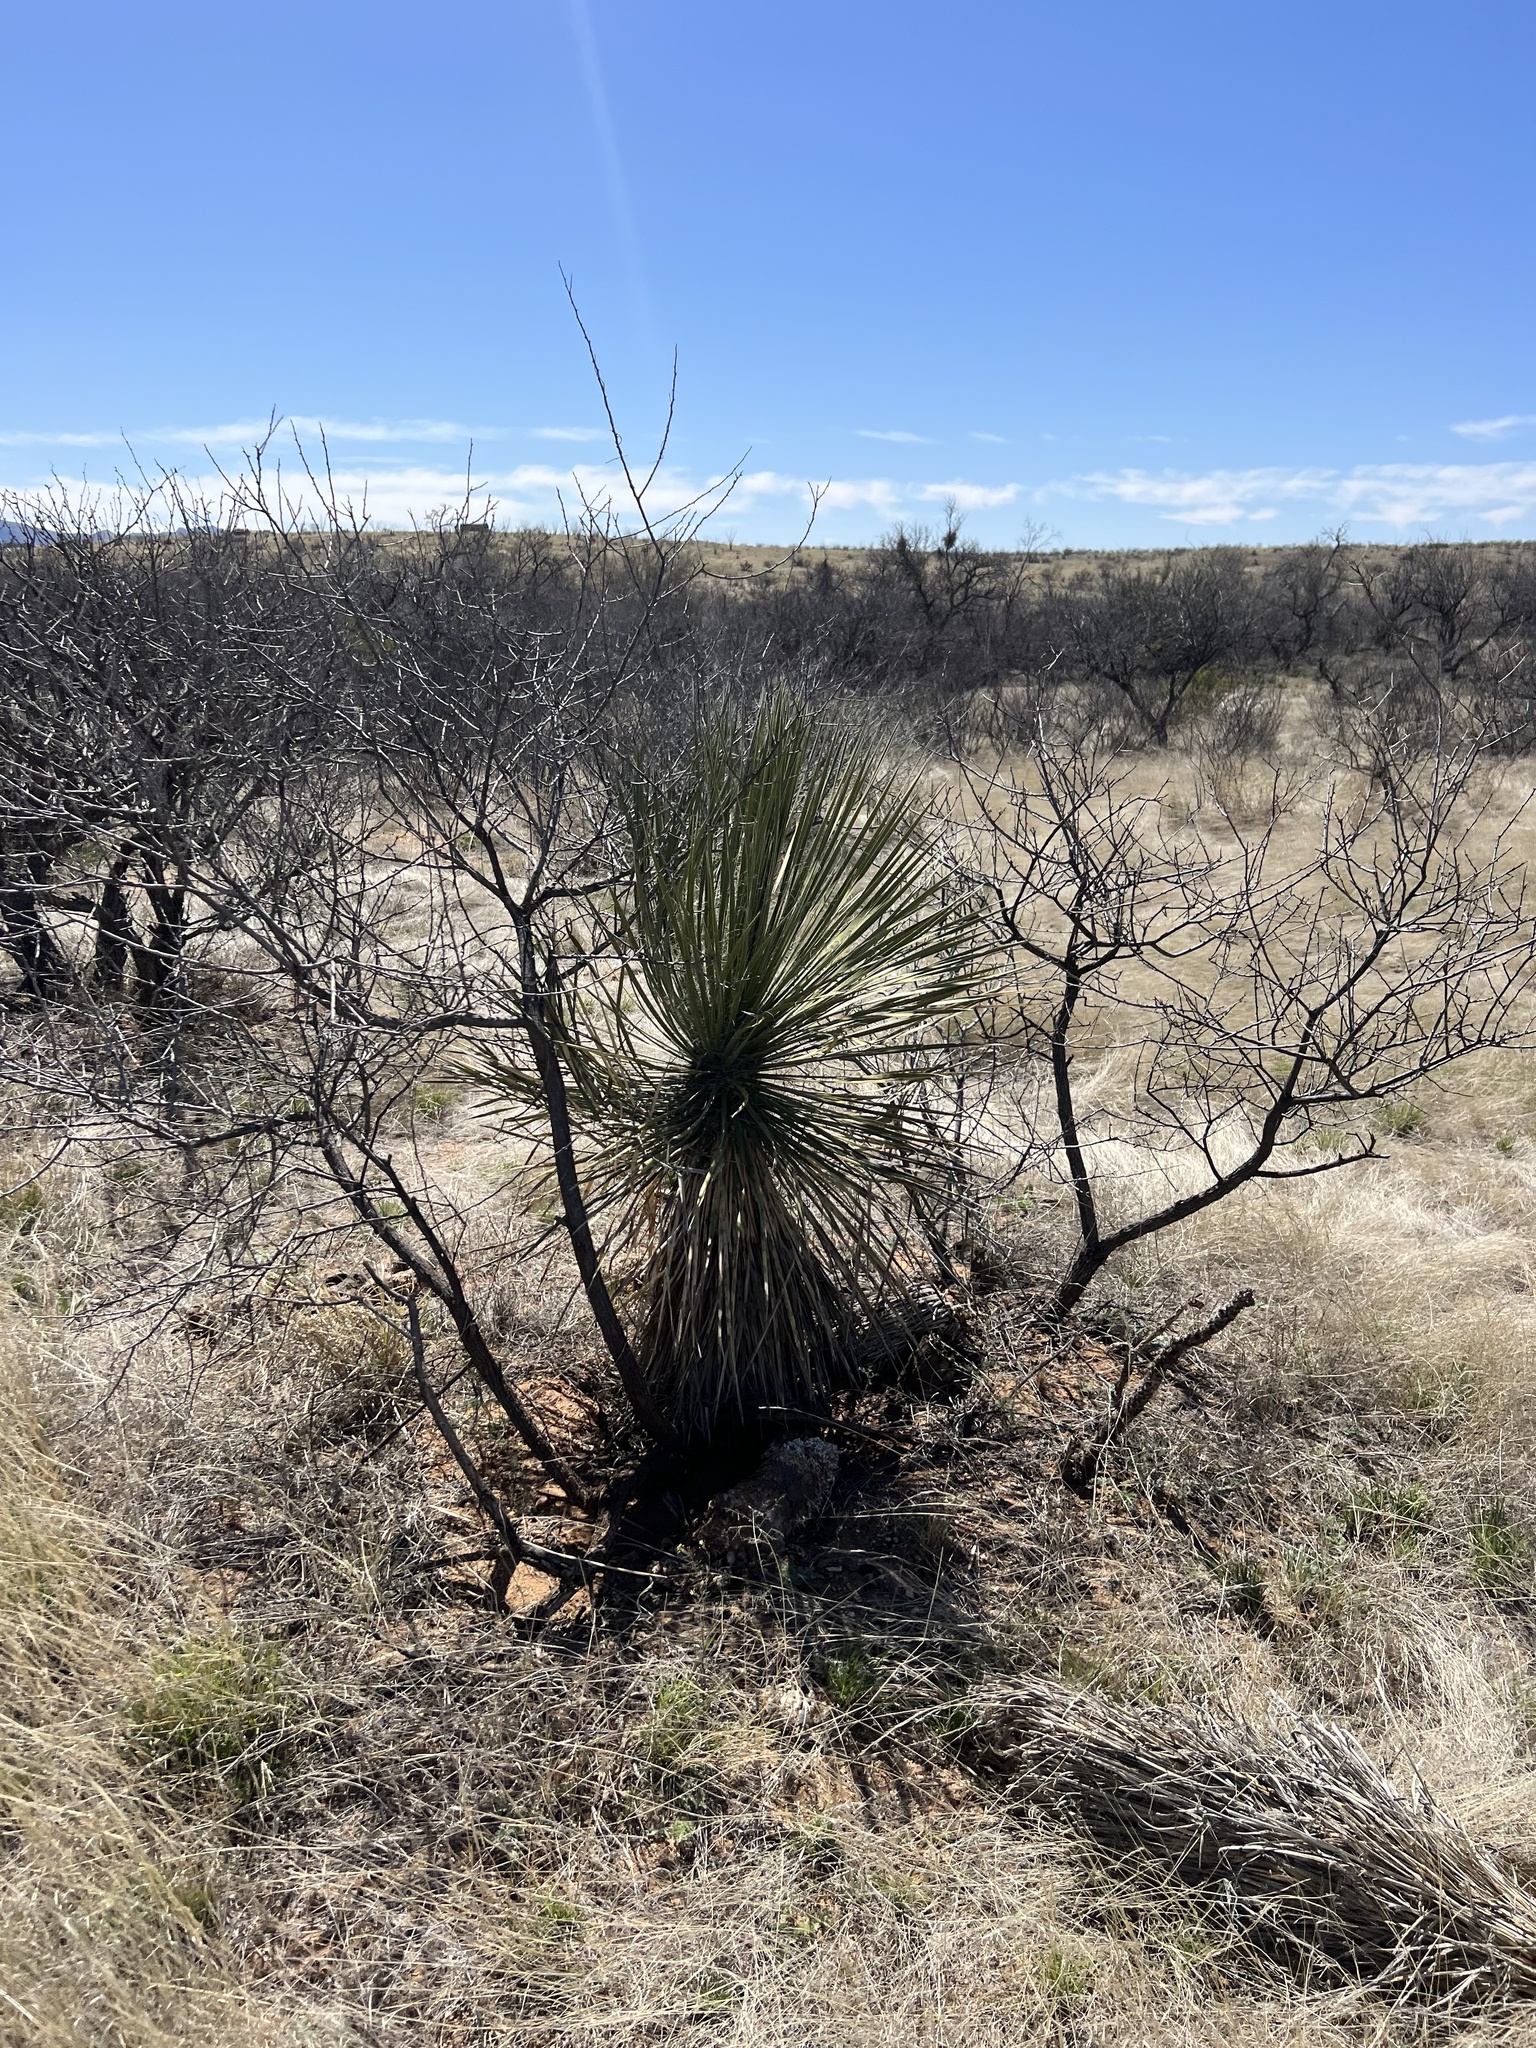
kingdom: Plantae
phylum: Tracheophyta
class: Liliopsida
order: Asparagales
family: Asparagaceae
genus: Yucca
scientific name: Yucca elata
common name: Palmella
